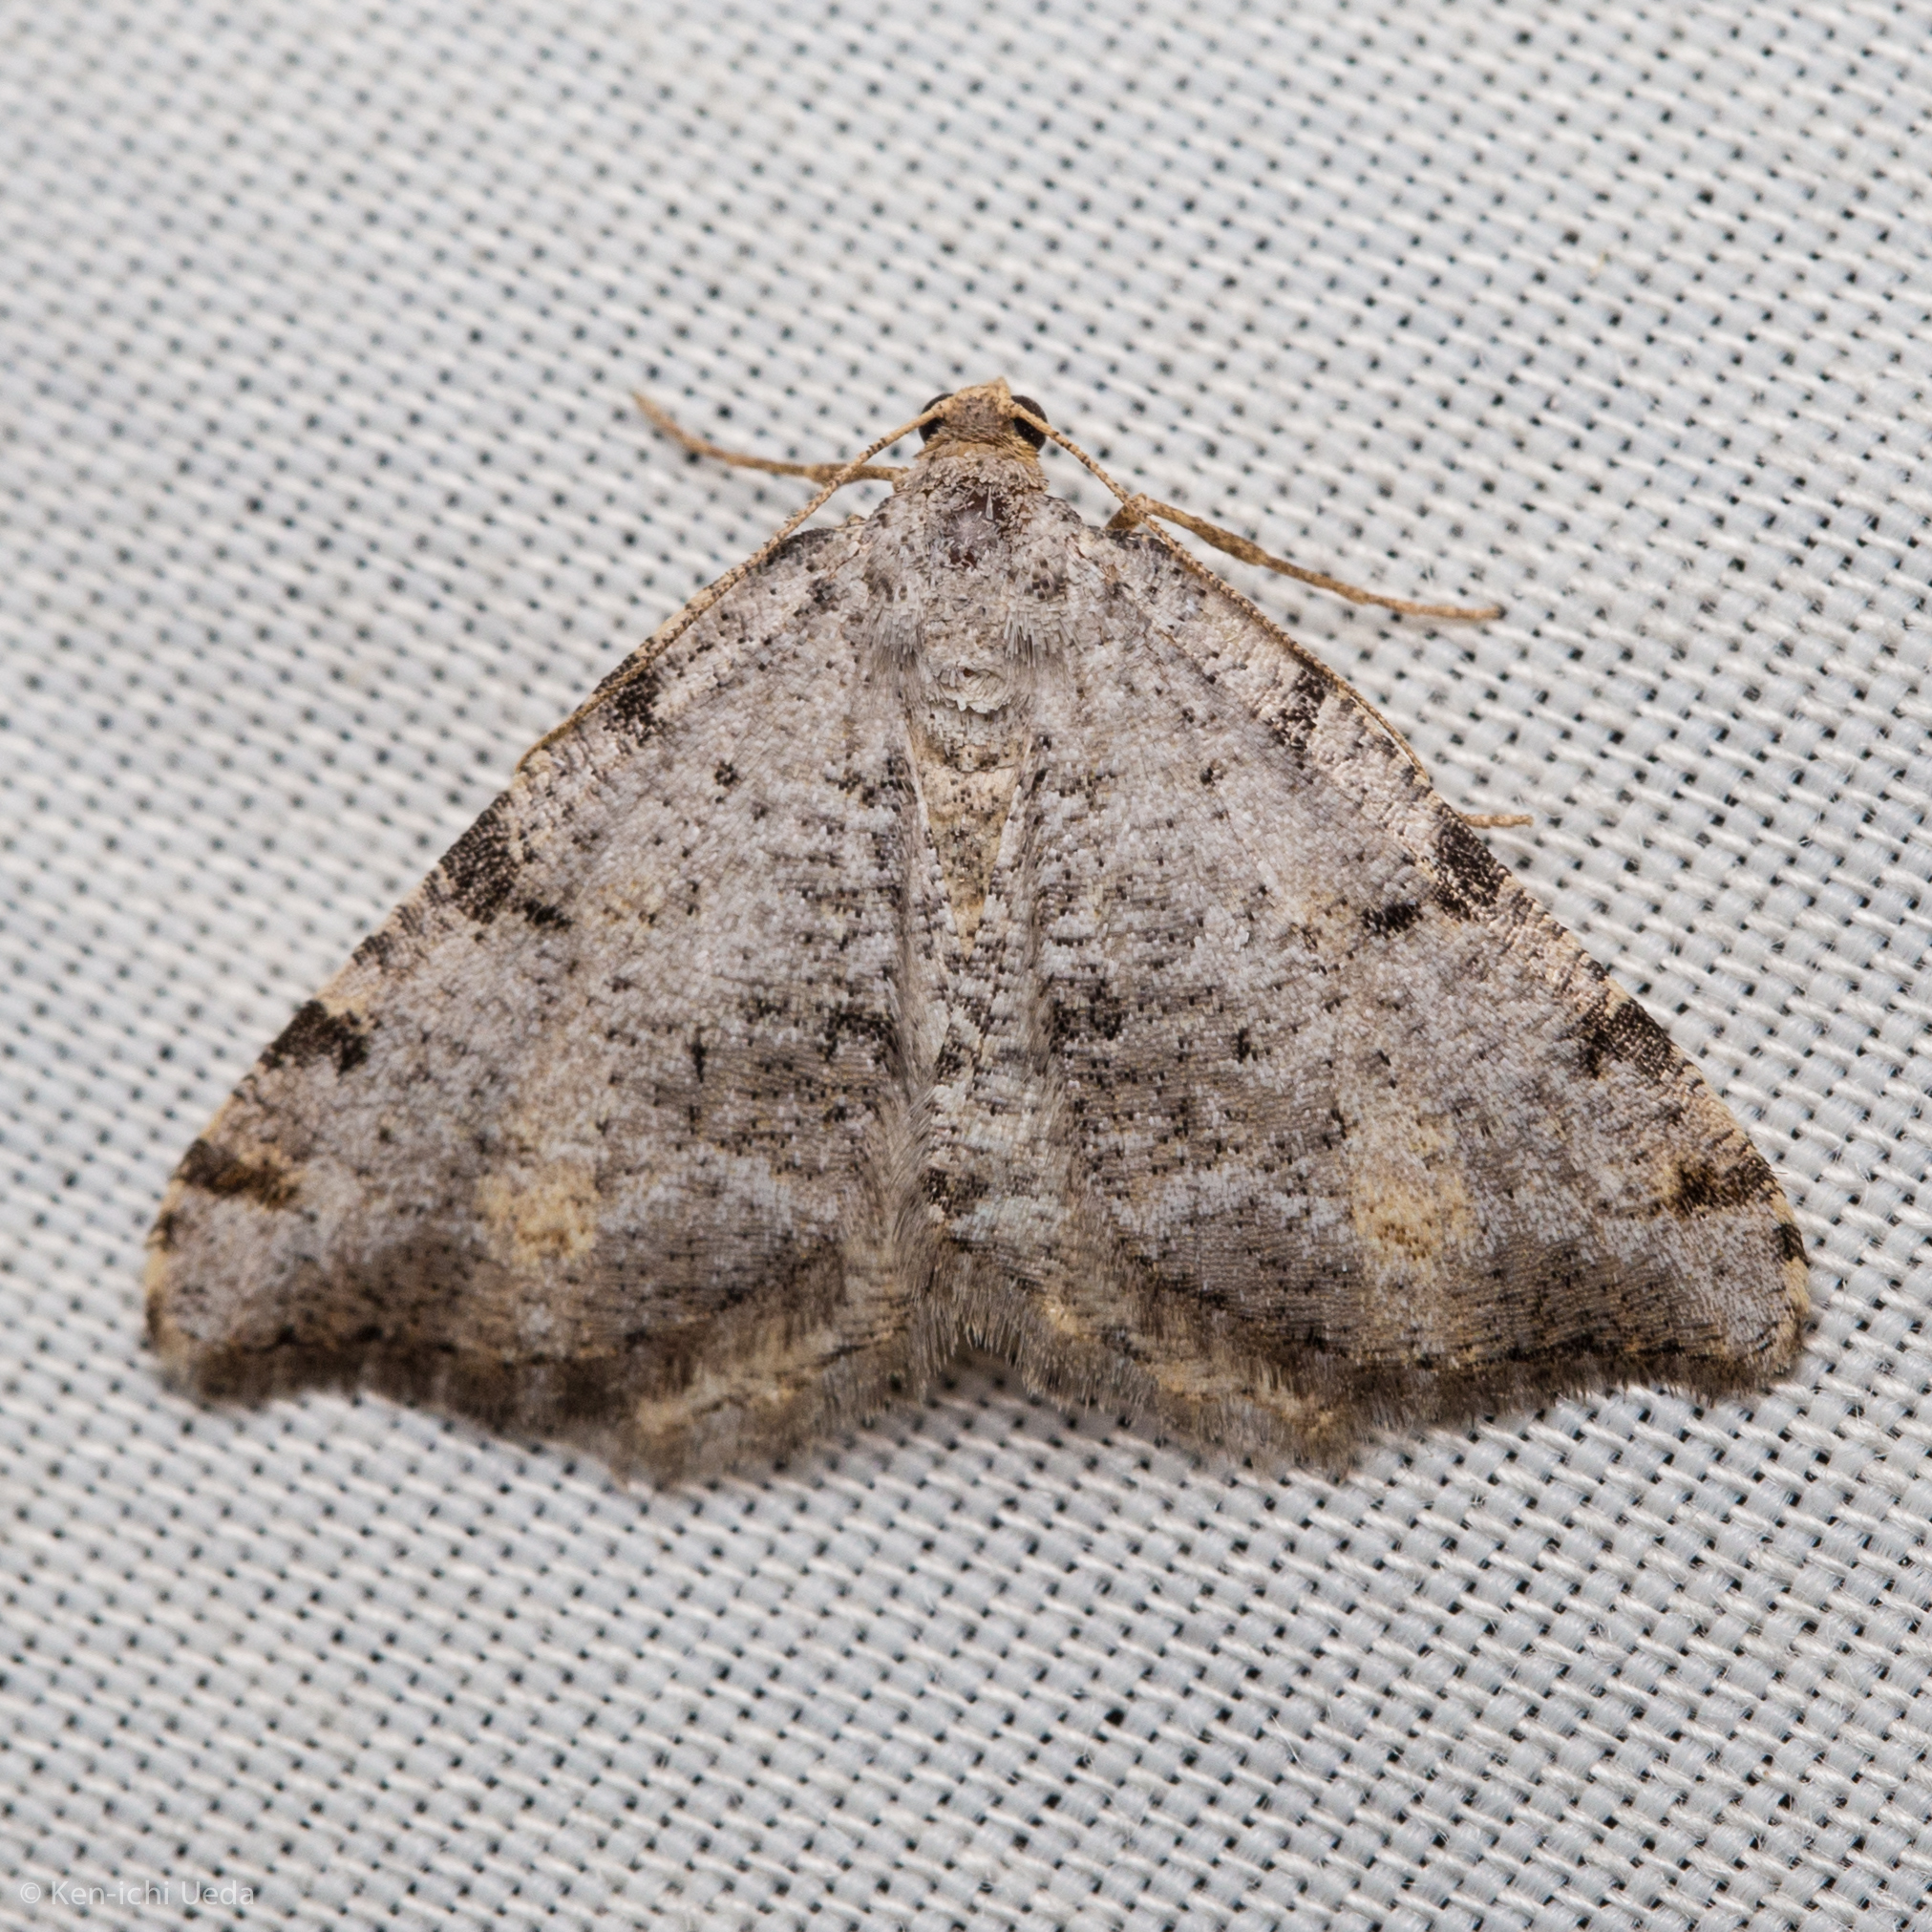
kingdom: Animalia
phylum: Arthropoda
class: Insecta
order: Lepidoptera
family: Geometridae
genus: Macaria
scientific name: Macaria quadrilinearia
